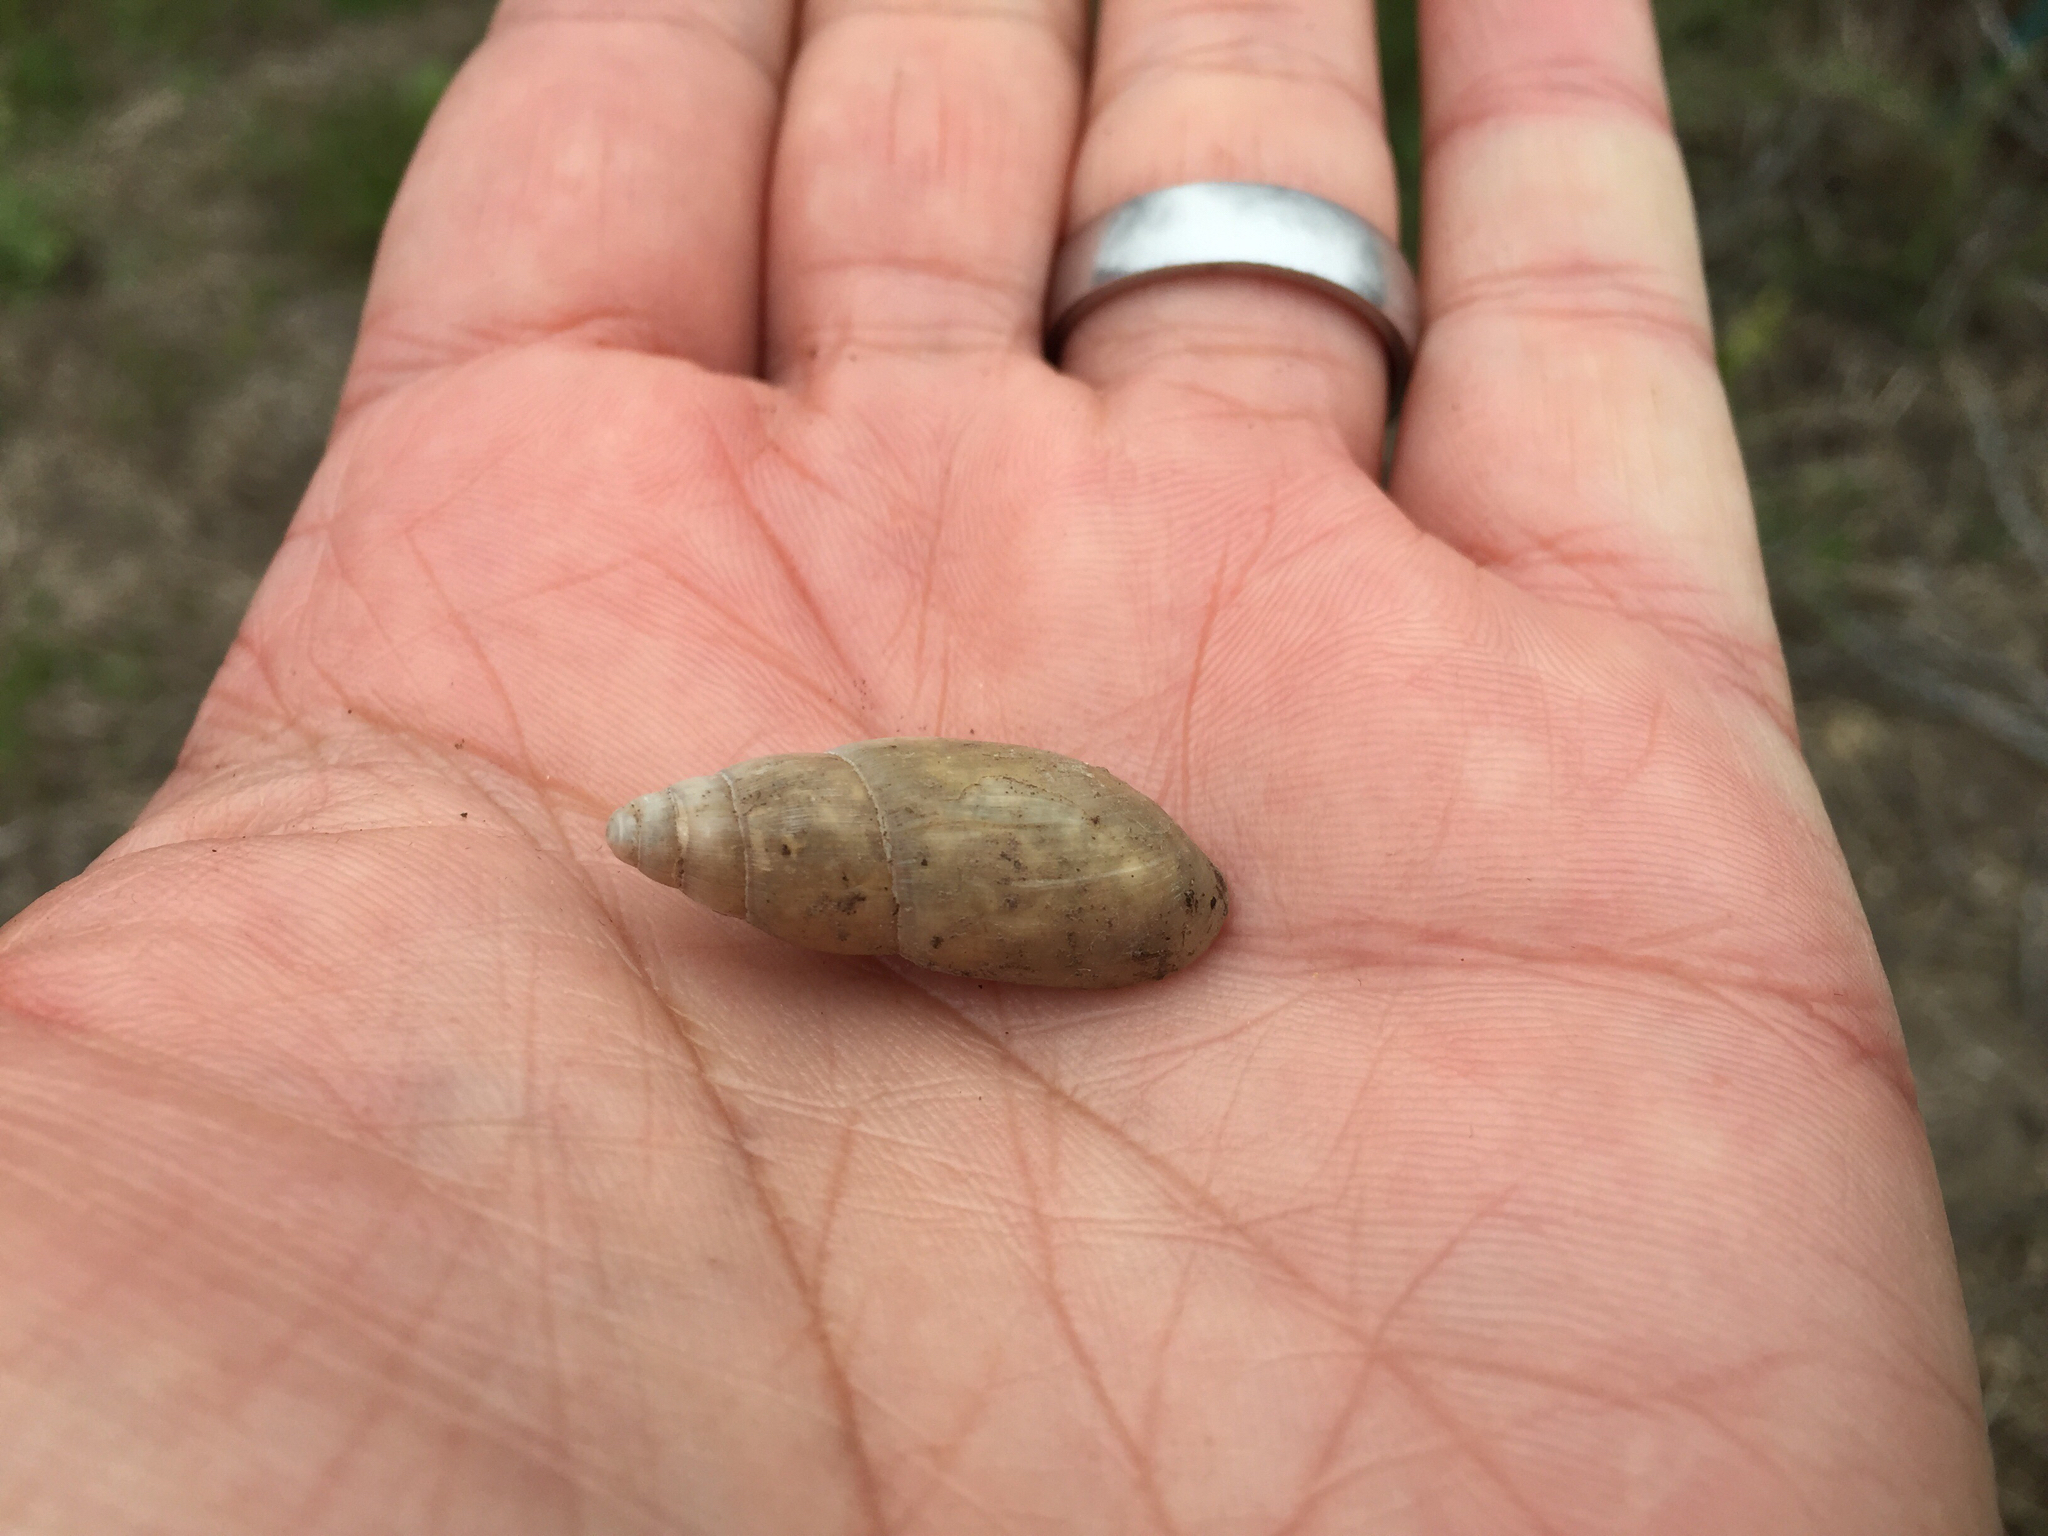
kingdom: Animalia
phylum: Mollusca
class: Gastropoda
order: Stylommatophora
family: Spiraxidae
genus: Euglandina
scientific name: Euglandina texasiana
